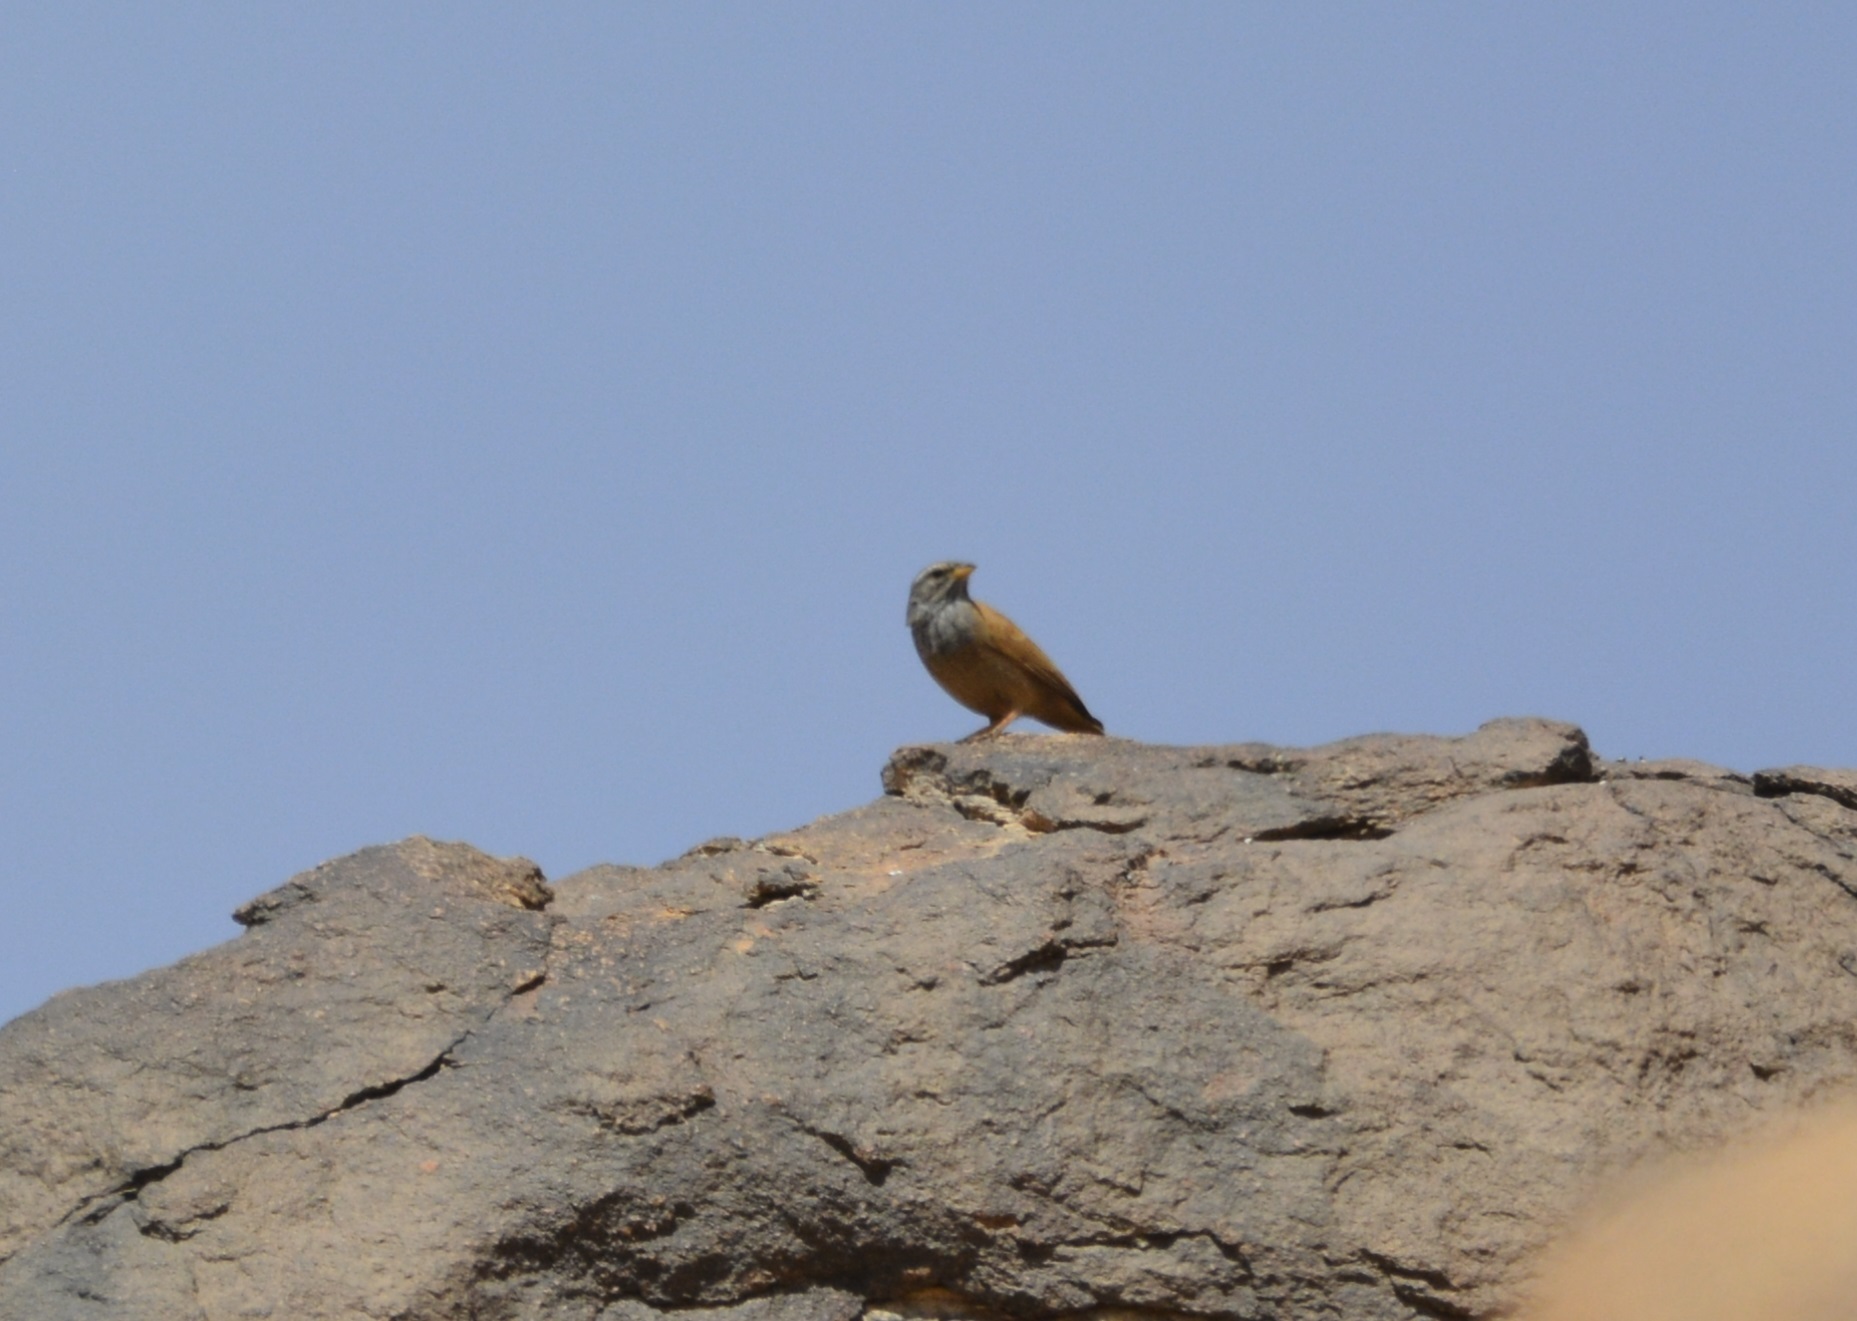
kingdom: Animalia
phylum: Chordata
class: Aves
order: Passeriformes
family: Emberizidae
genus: Emberiza
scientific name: Emberiza sahari
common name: House bunting
